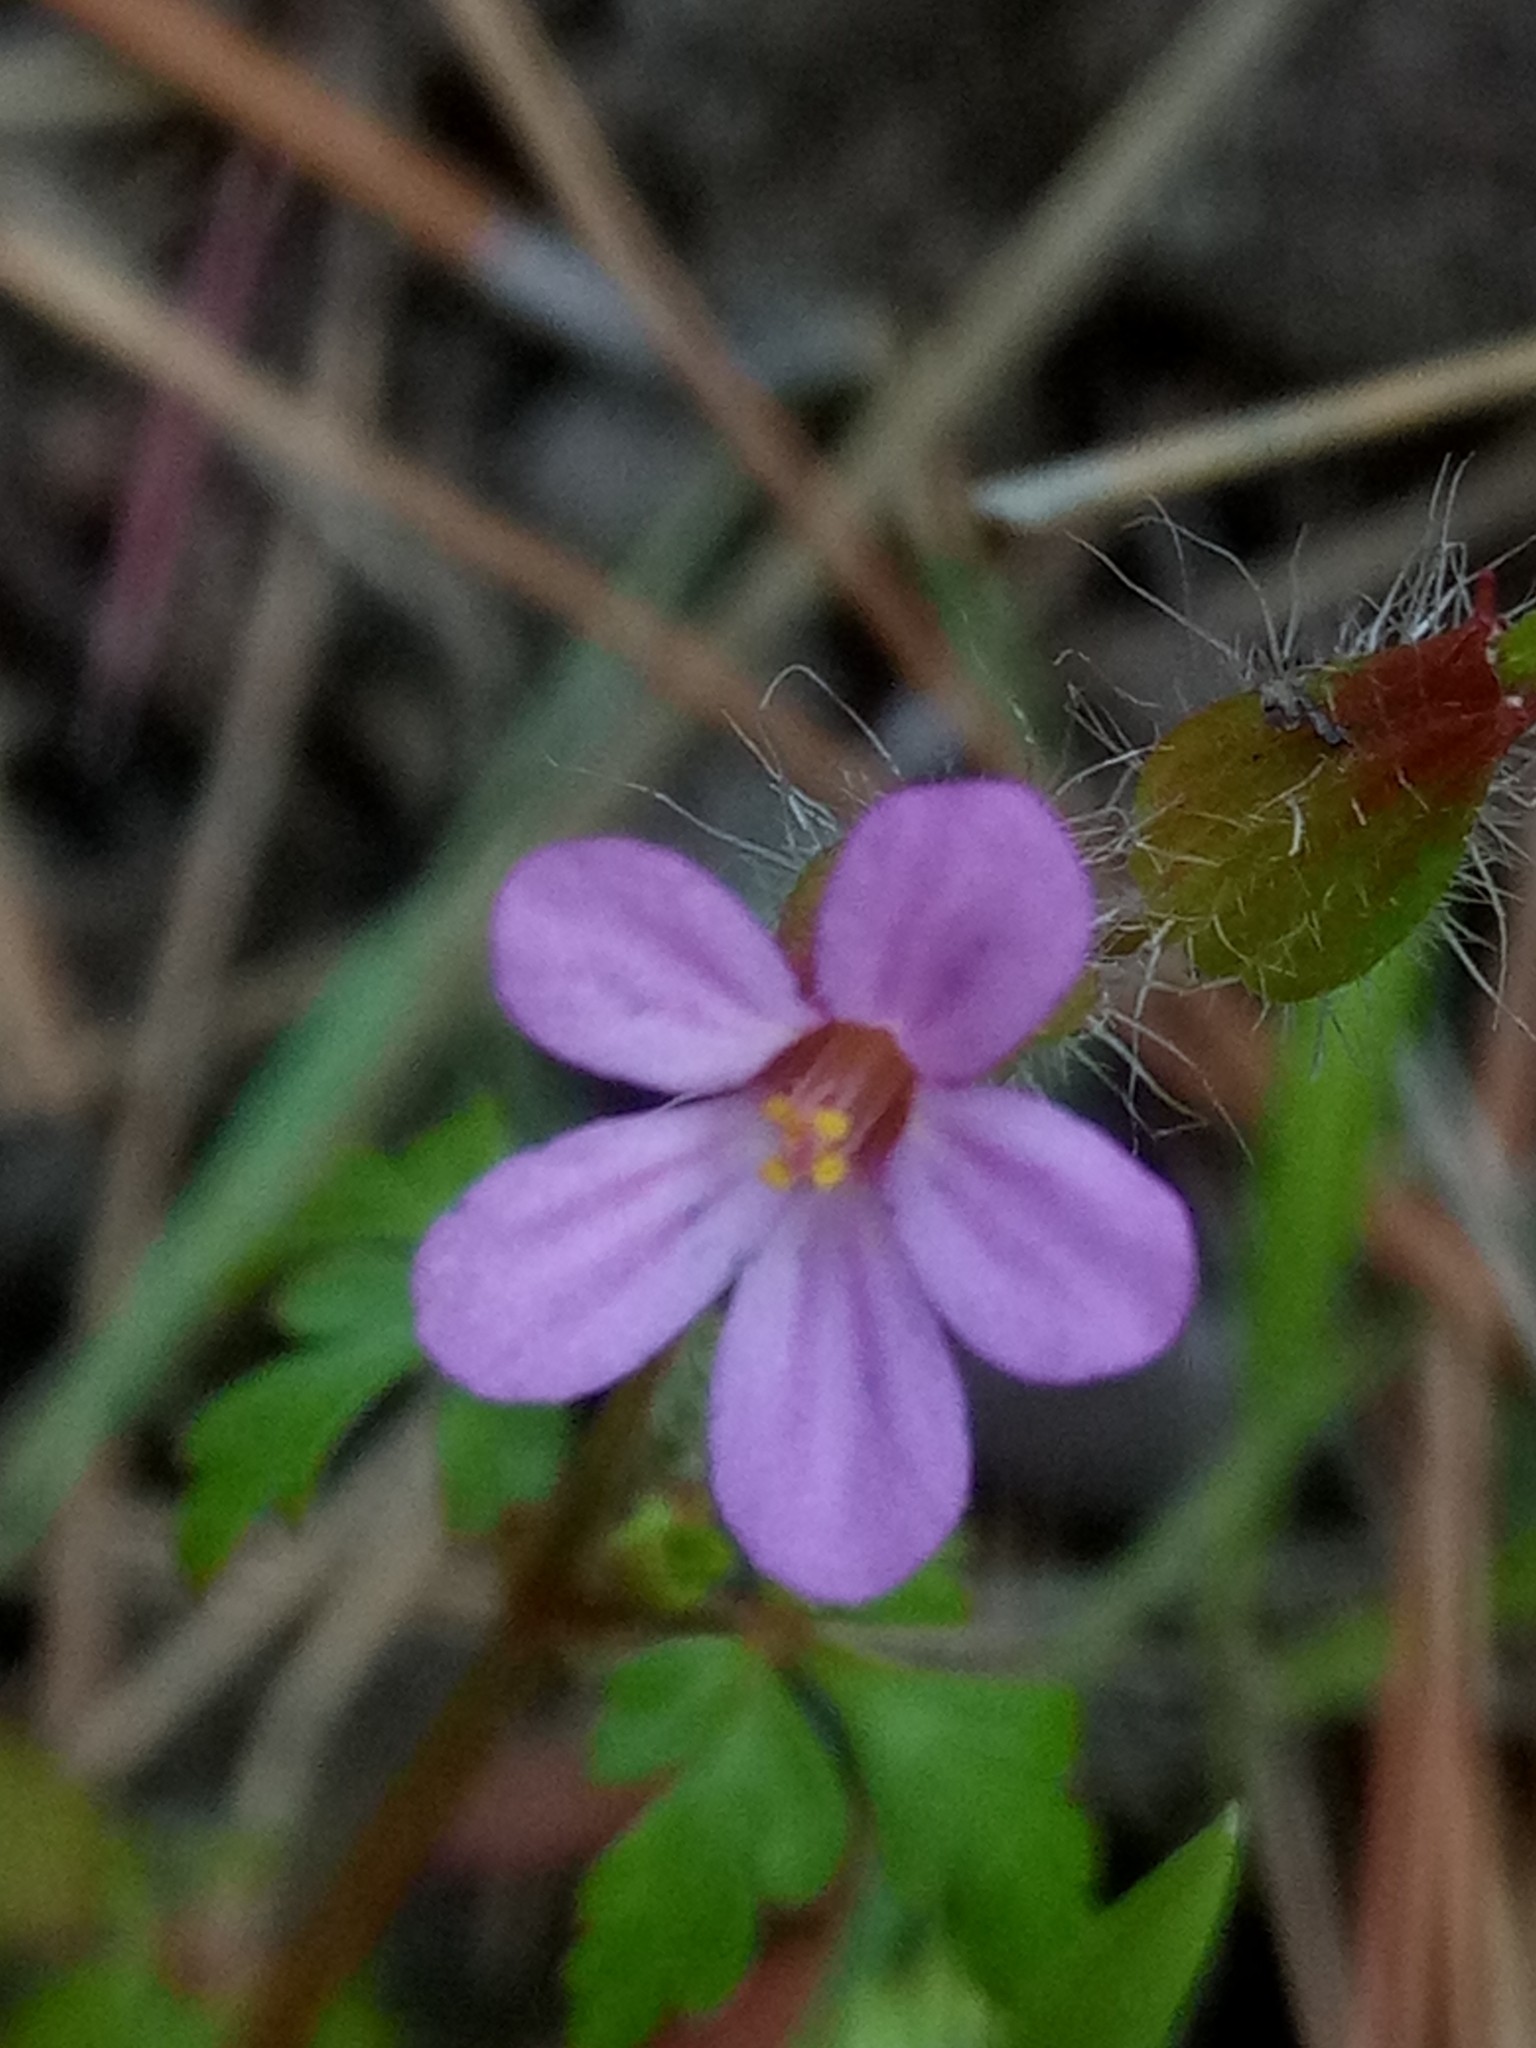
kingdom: Plantae
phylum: Tracheophyta
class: Magnoliopsida
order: Geraniales
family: Geraniaceae
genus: Geranium
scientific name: Geranium purpureum
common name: Little-robin
